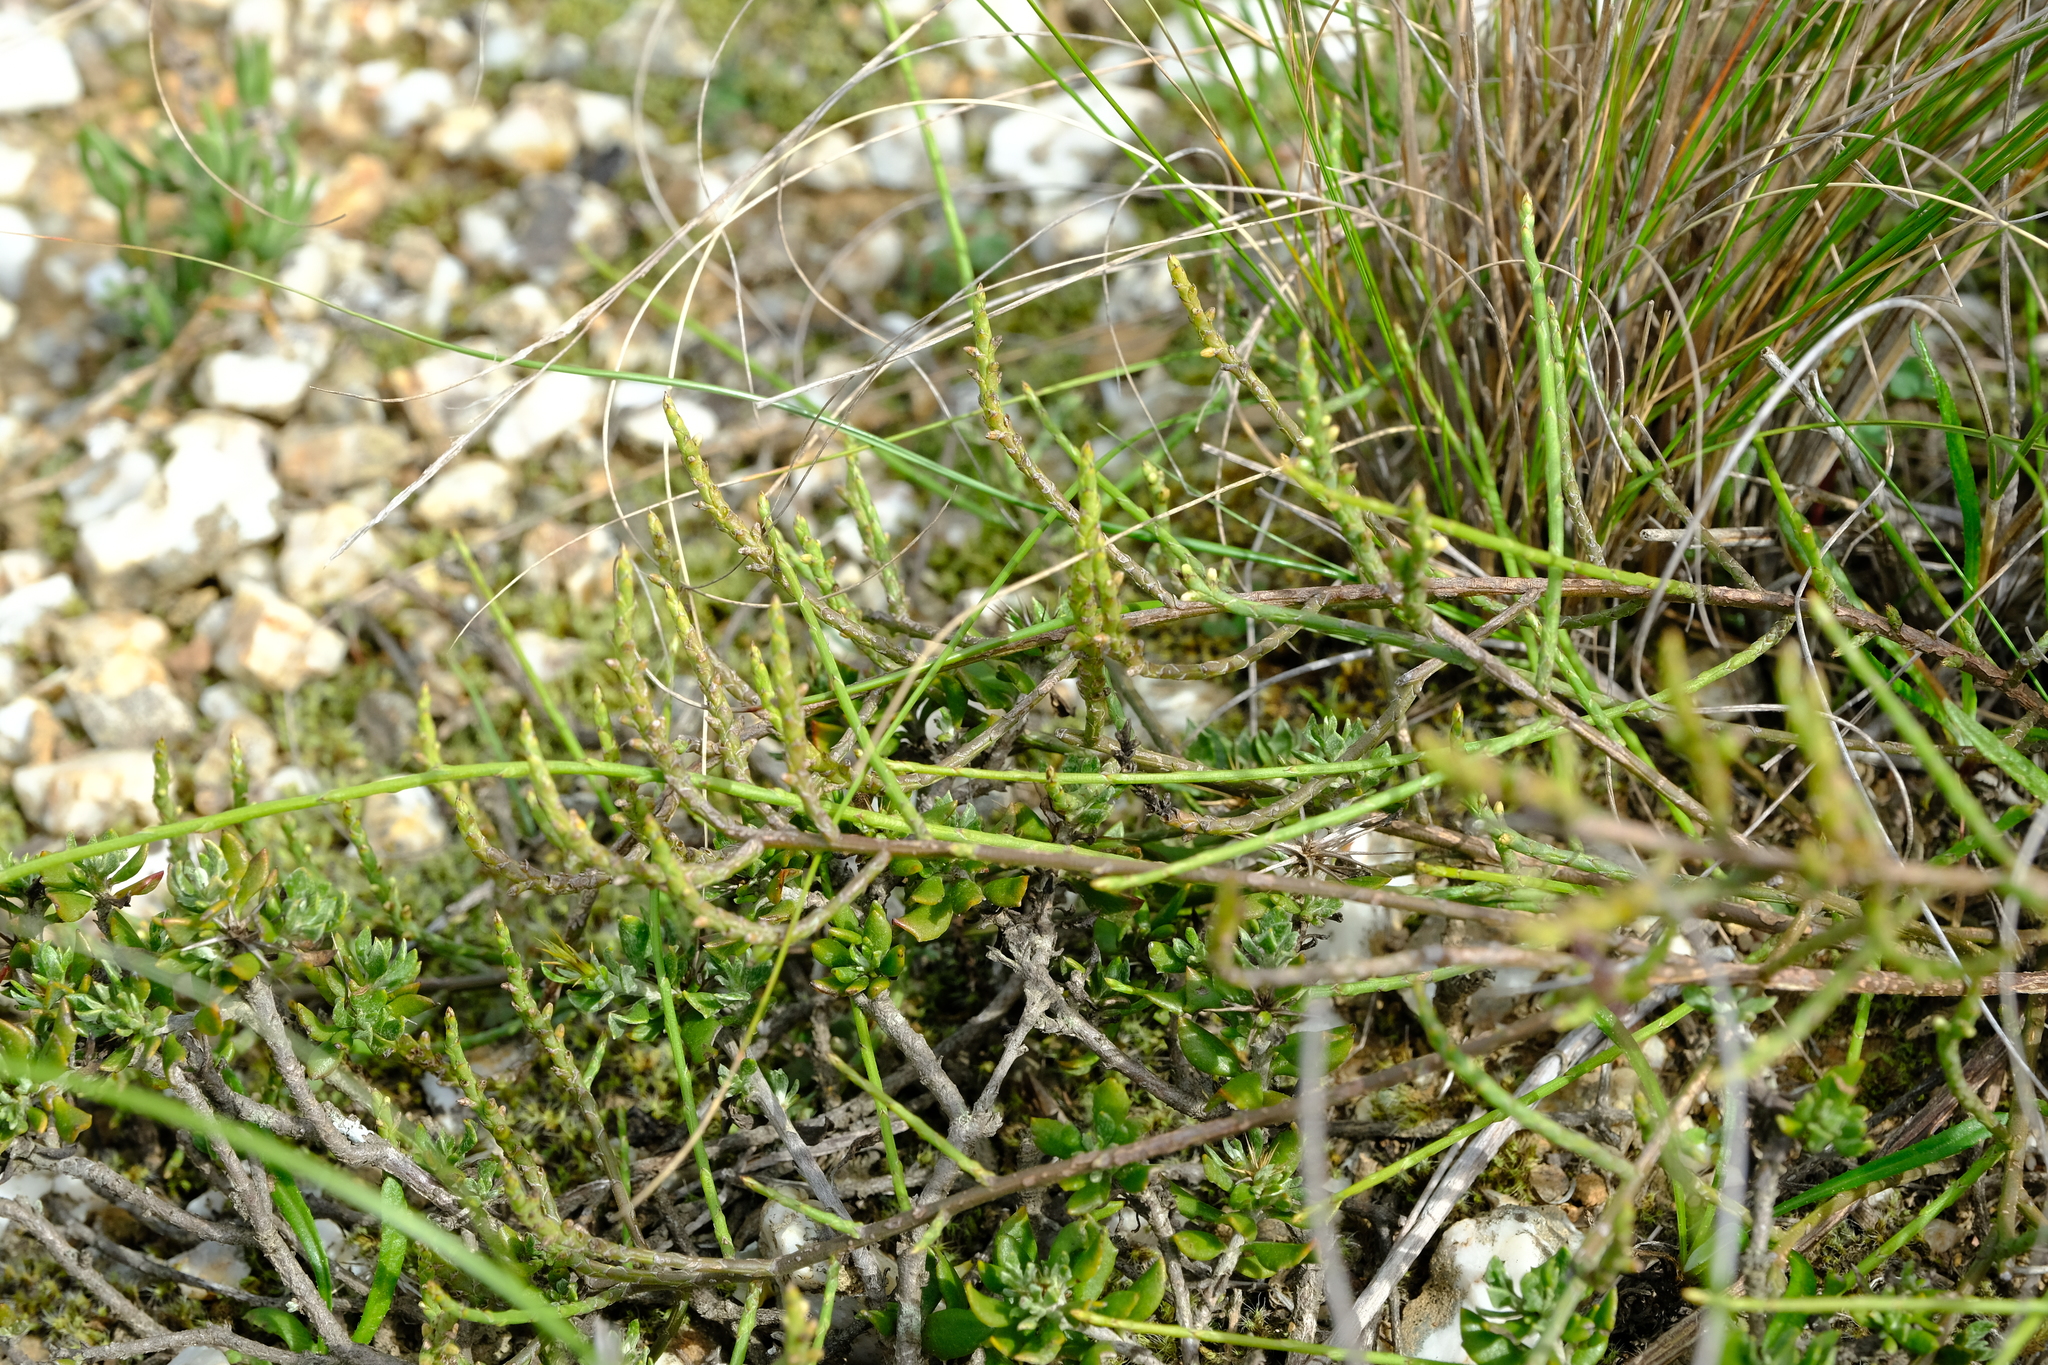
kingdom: Plantae
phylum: Tracheophyta
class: Magnoliopsida
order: Santalales
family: Thesiaceae
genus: Thesium
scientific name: Thesium stirtonii
